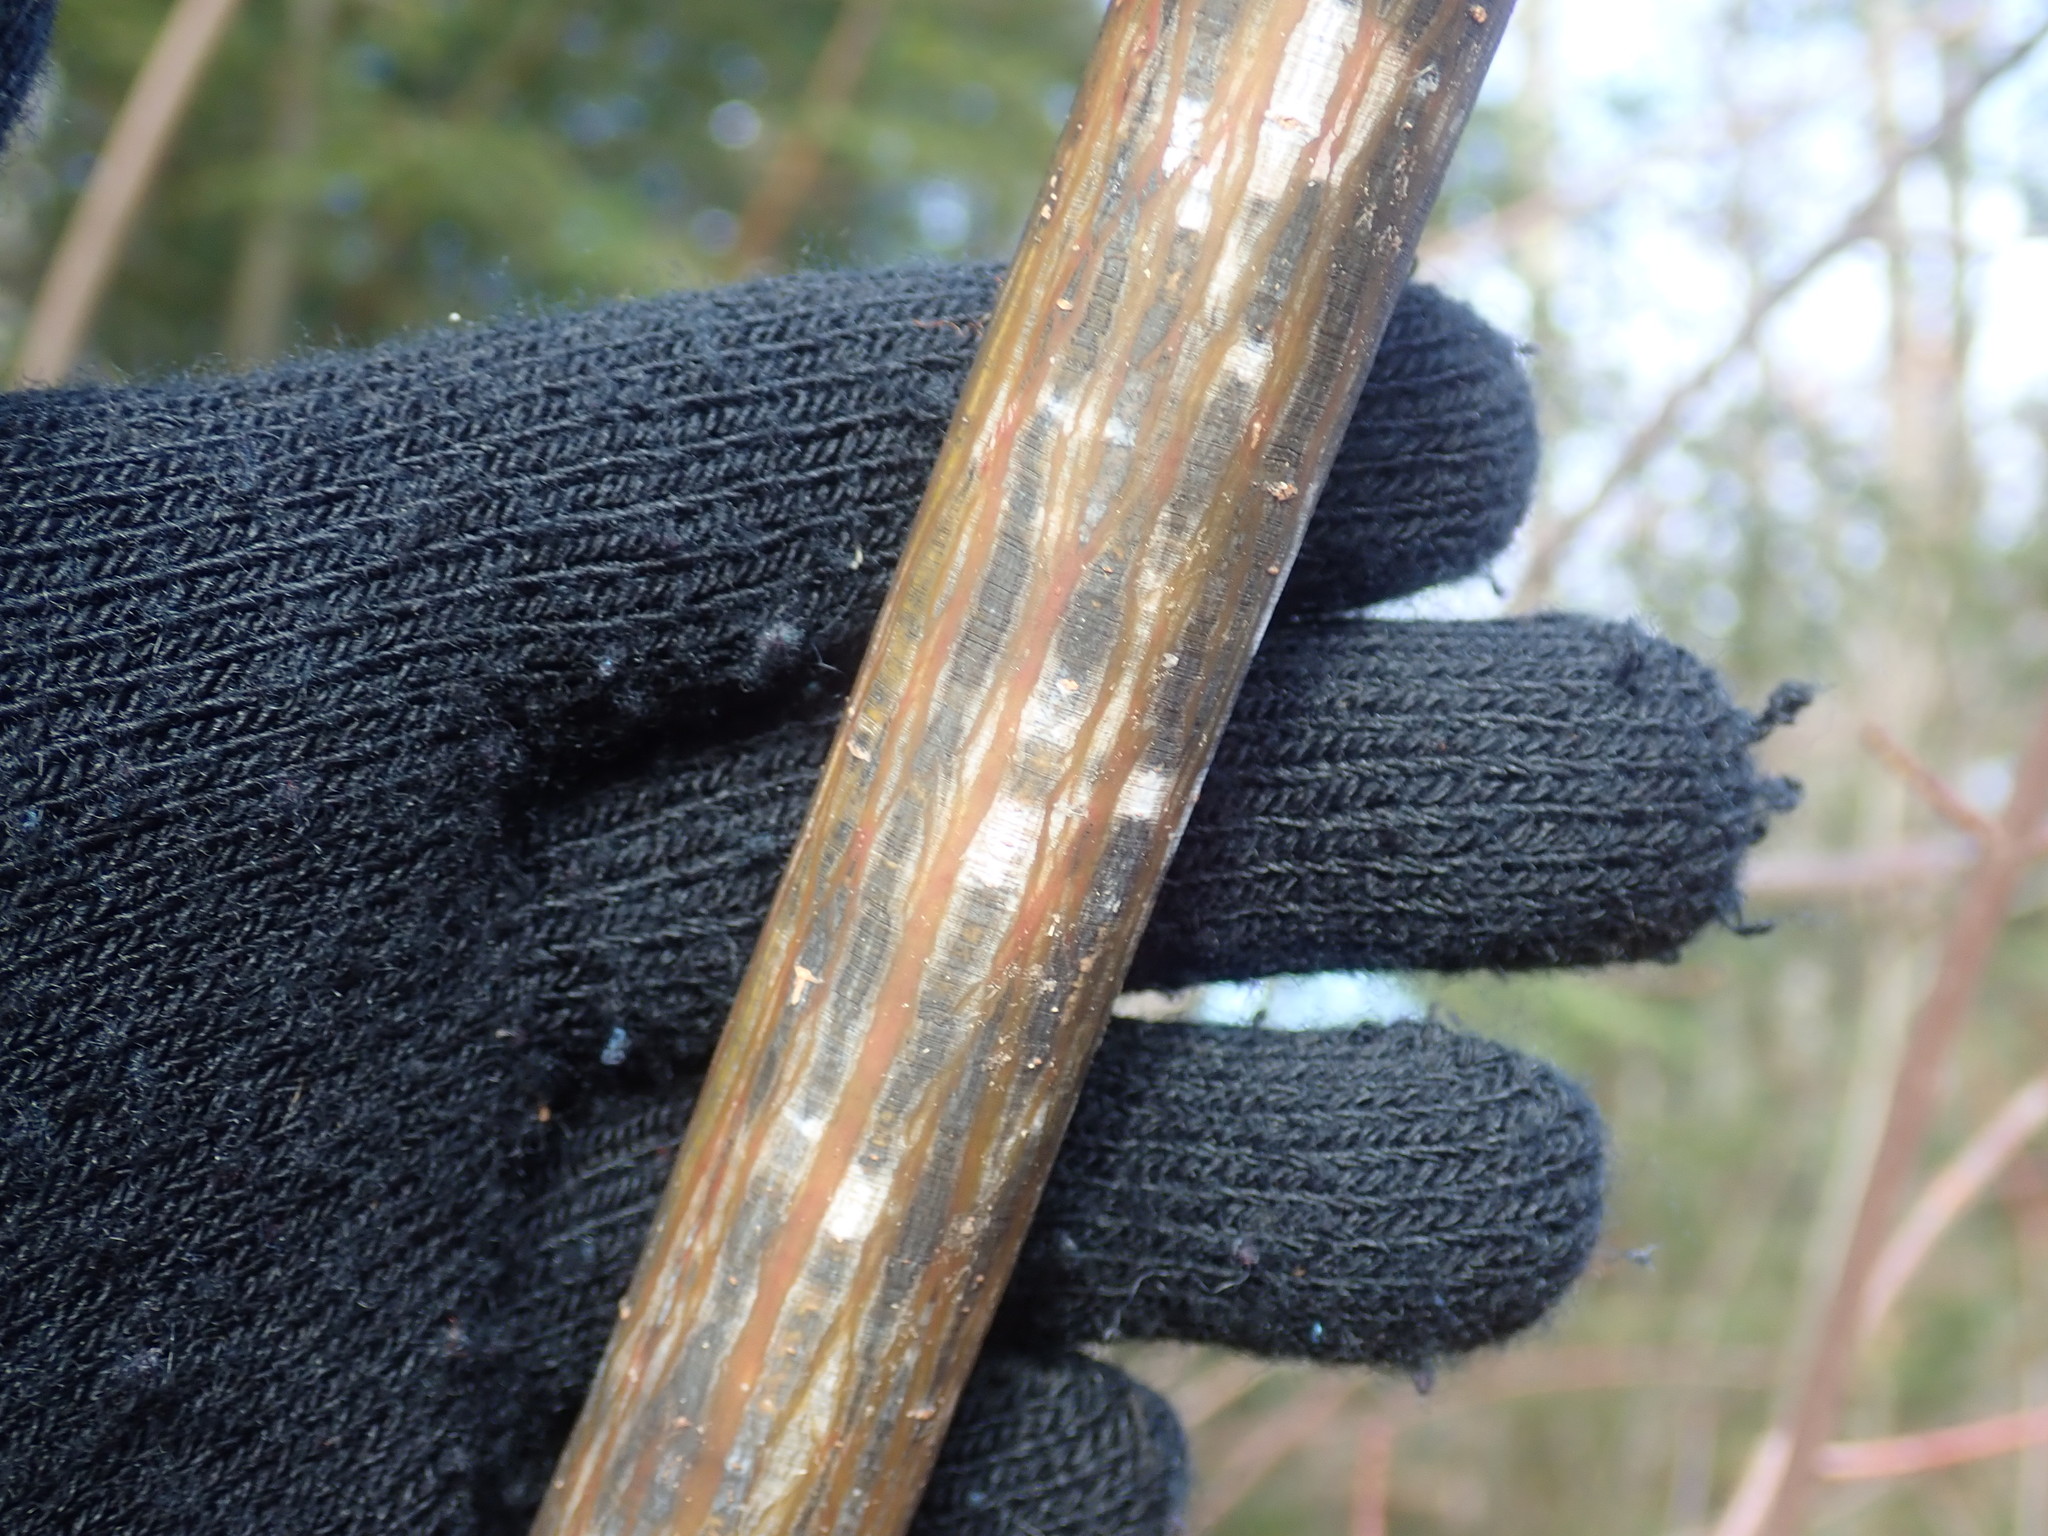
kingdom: Plantae
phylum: Tracheophyta
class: Magnoliopsida
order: Sapindales
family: Sapindaceae
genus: Acer
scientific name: Acer pensylvanicum
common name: Moosewood
